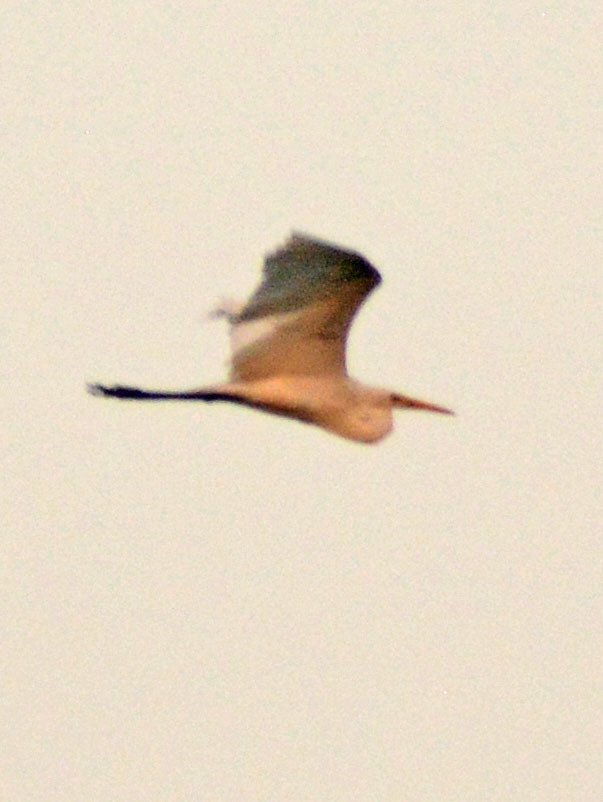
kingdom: Animalia
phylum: Chordata
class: Aves
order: Pelecaniformes
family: Ardeidae
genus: Ardea
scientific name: Ardea alba
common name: Great egret
